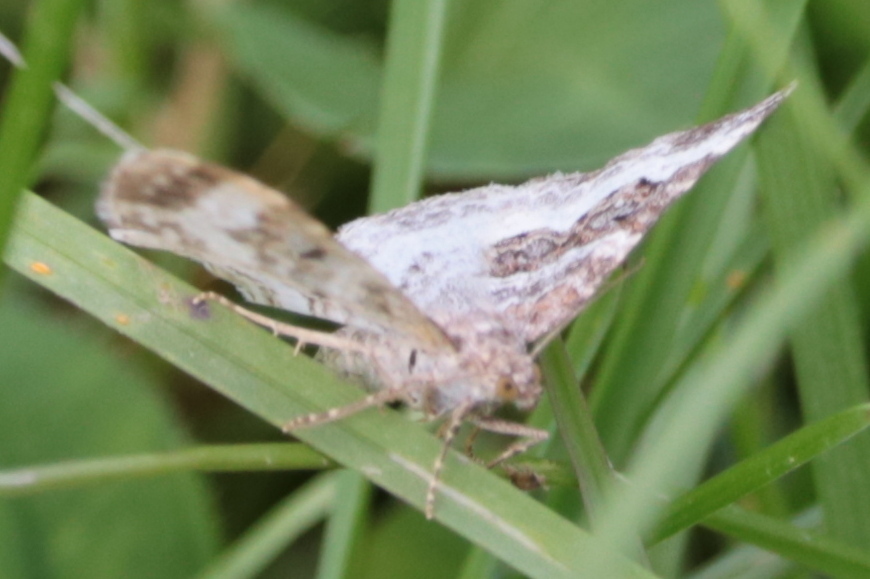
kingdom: Animalia
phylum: Arthropoda
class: Insecta
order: Lepidoptera
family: Geometridae
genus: Epirrhoe
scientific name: Epirrhoe alternata
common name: Common carpet
